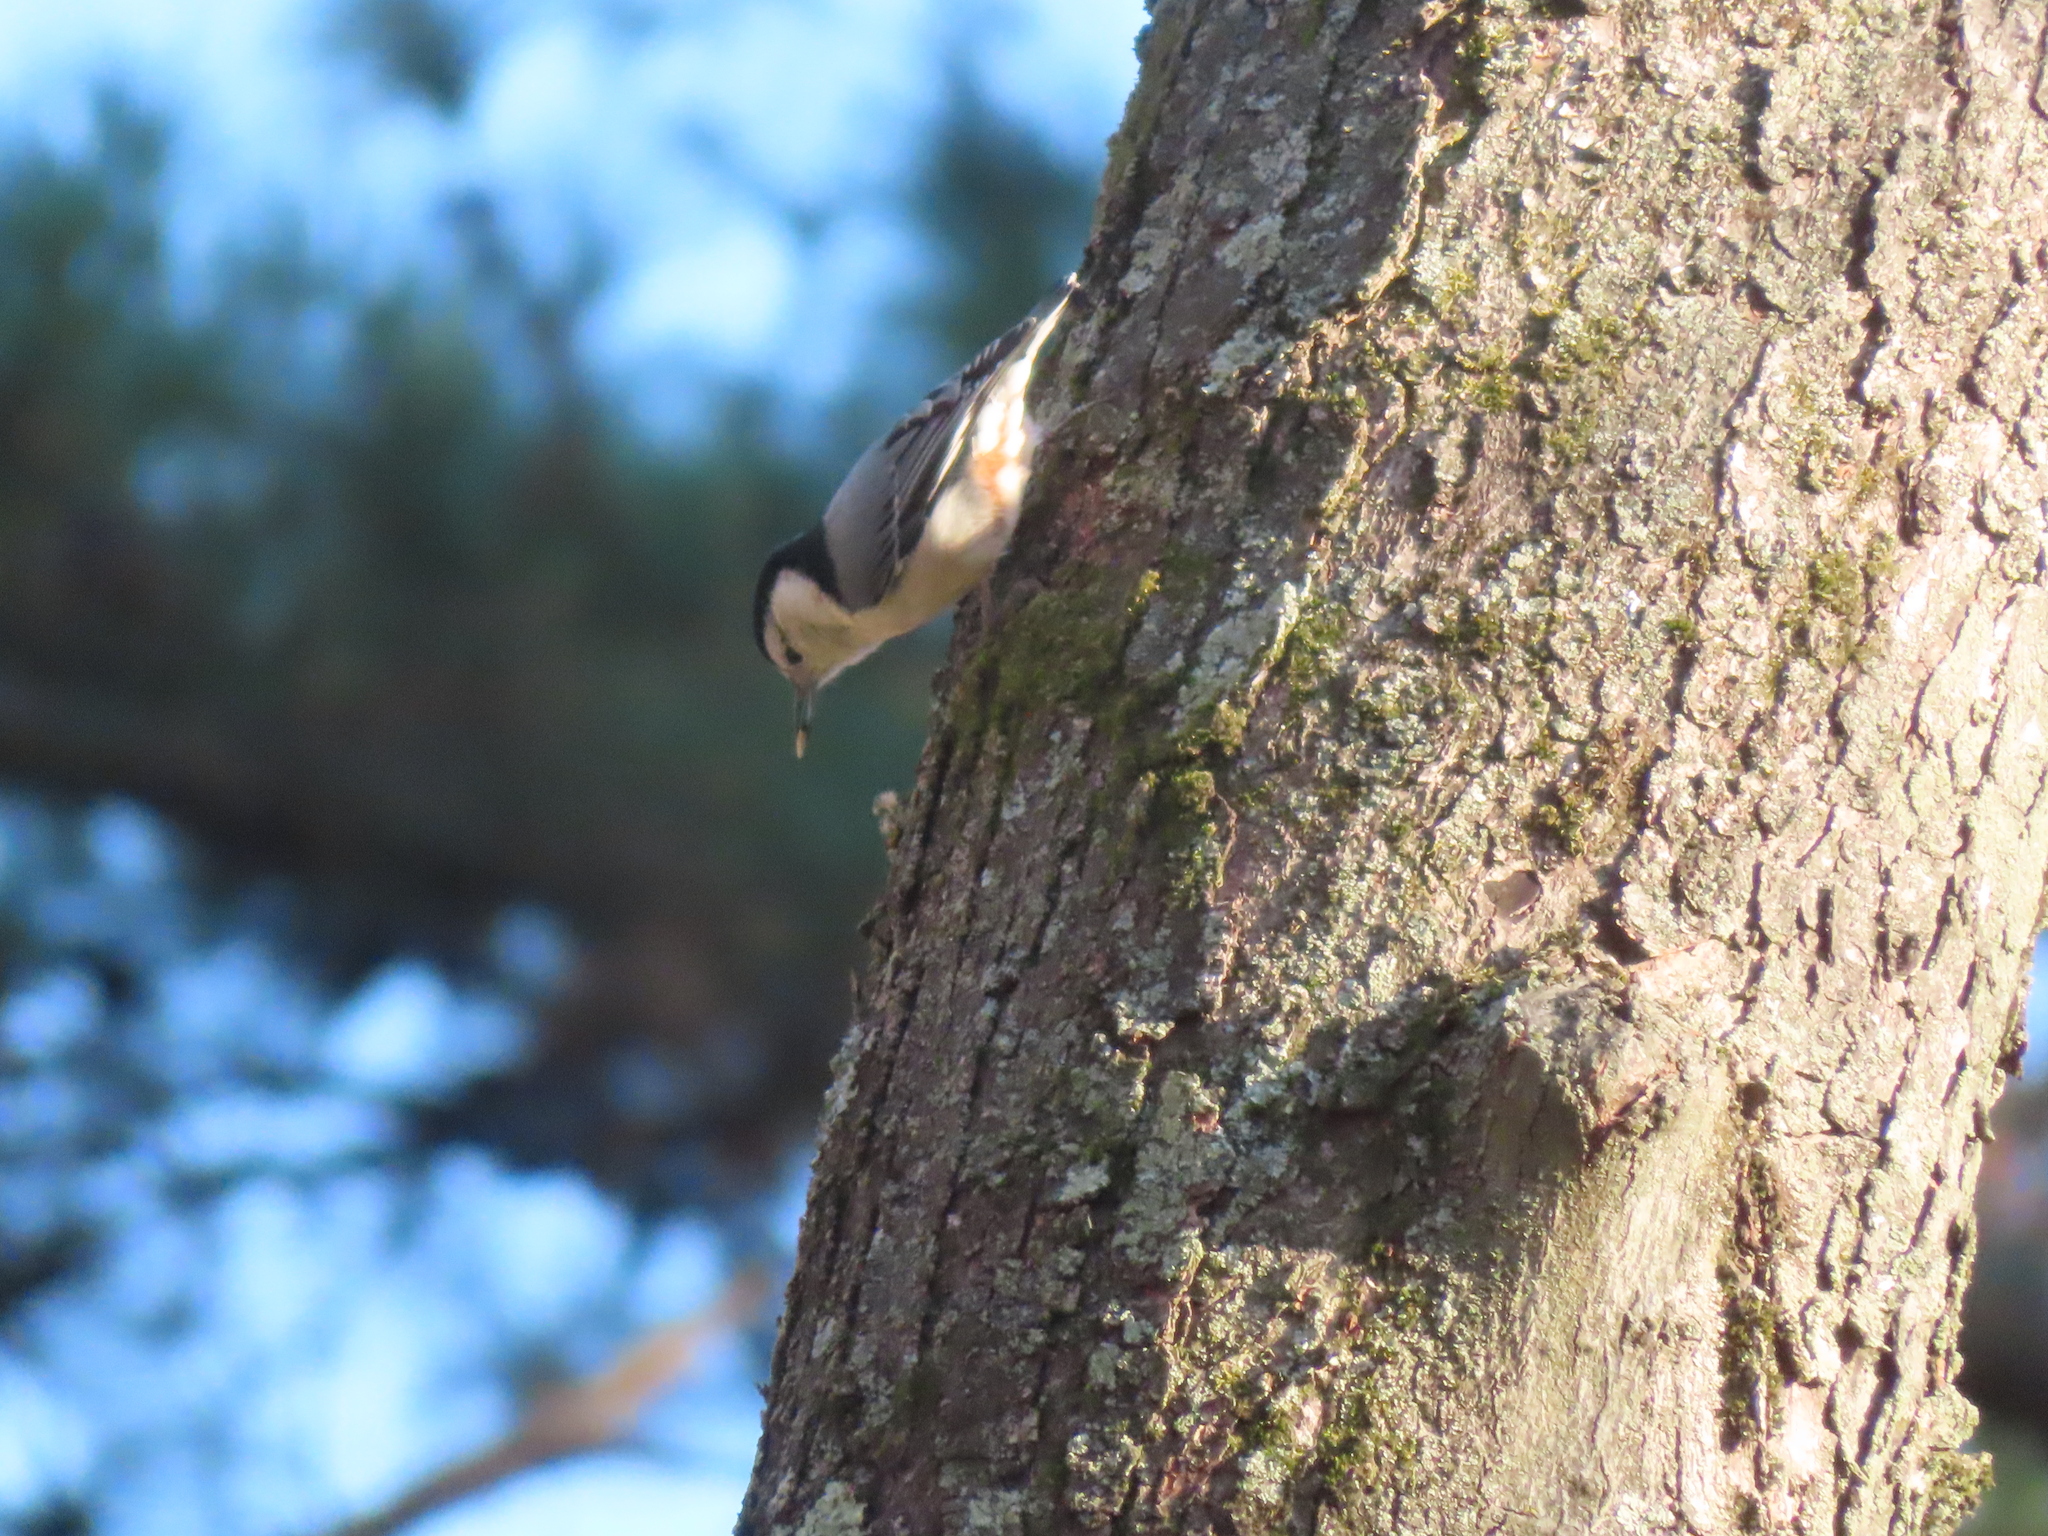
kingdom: Animalia
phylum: Chordata
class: Aves
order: Passeriformes
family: Sittidae
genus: Sitta
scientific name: Sitta carolinensis
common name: White-breasted nuthatch
